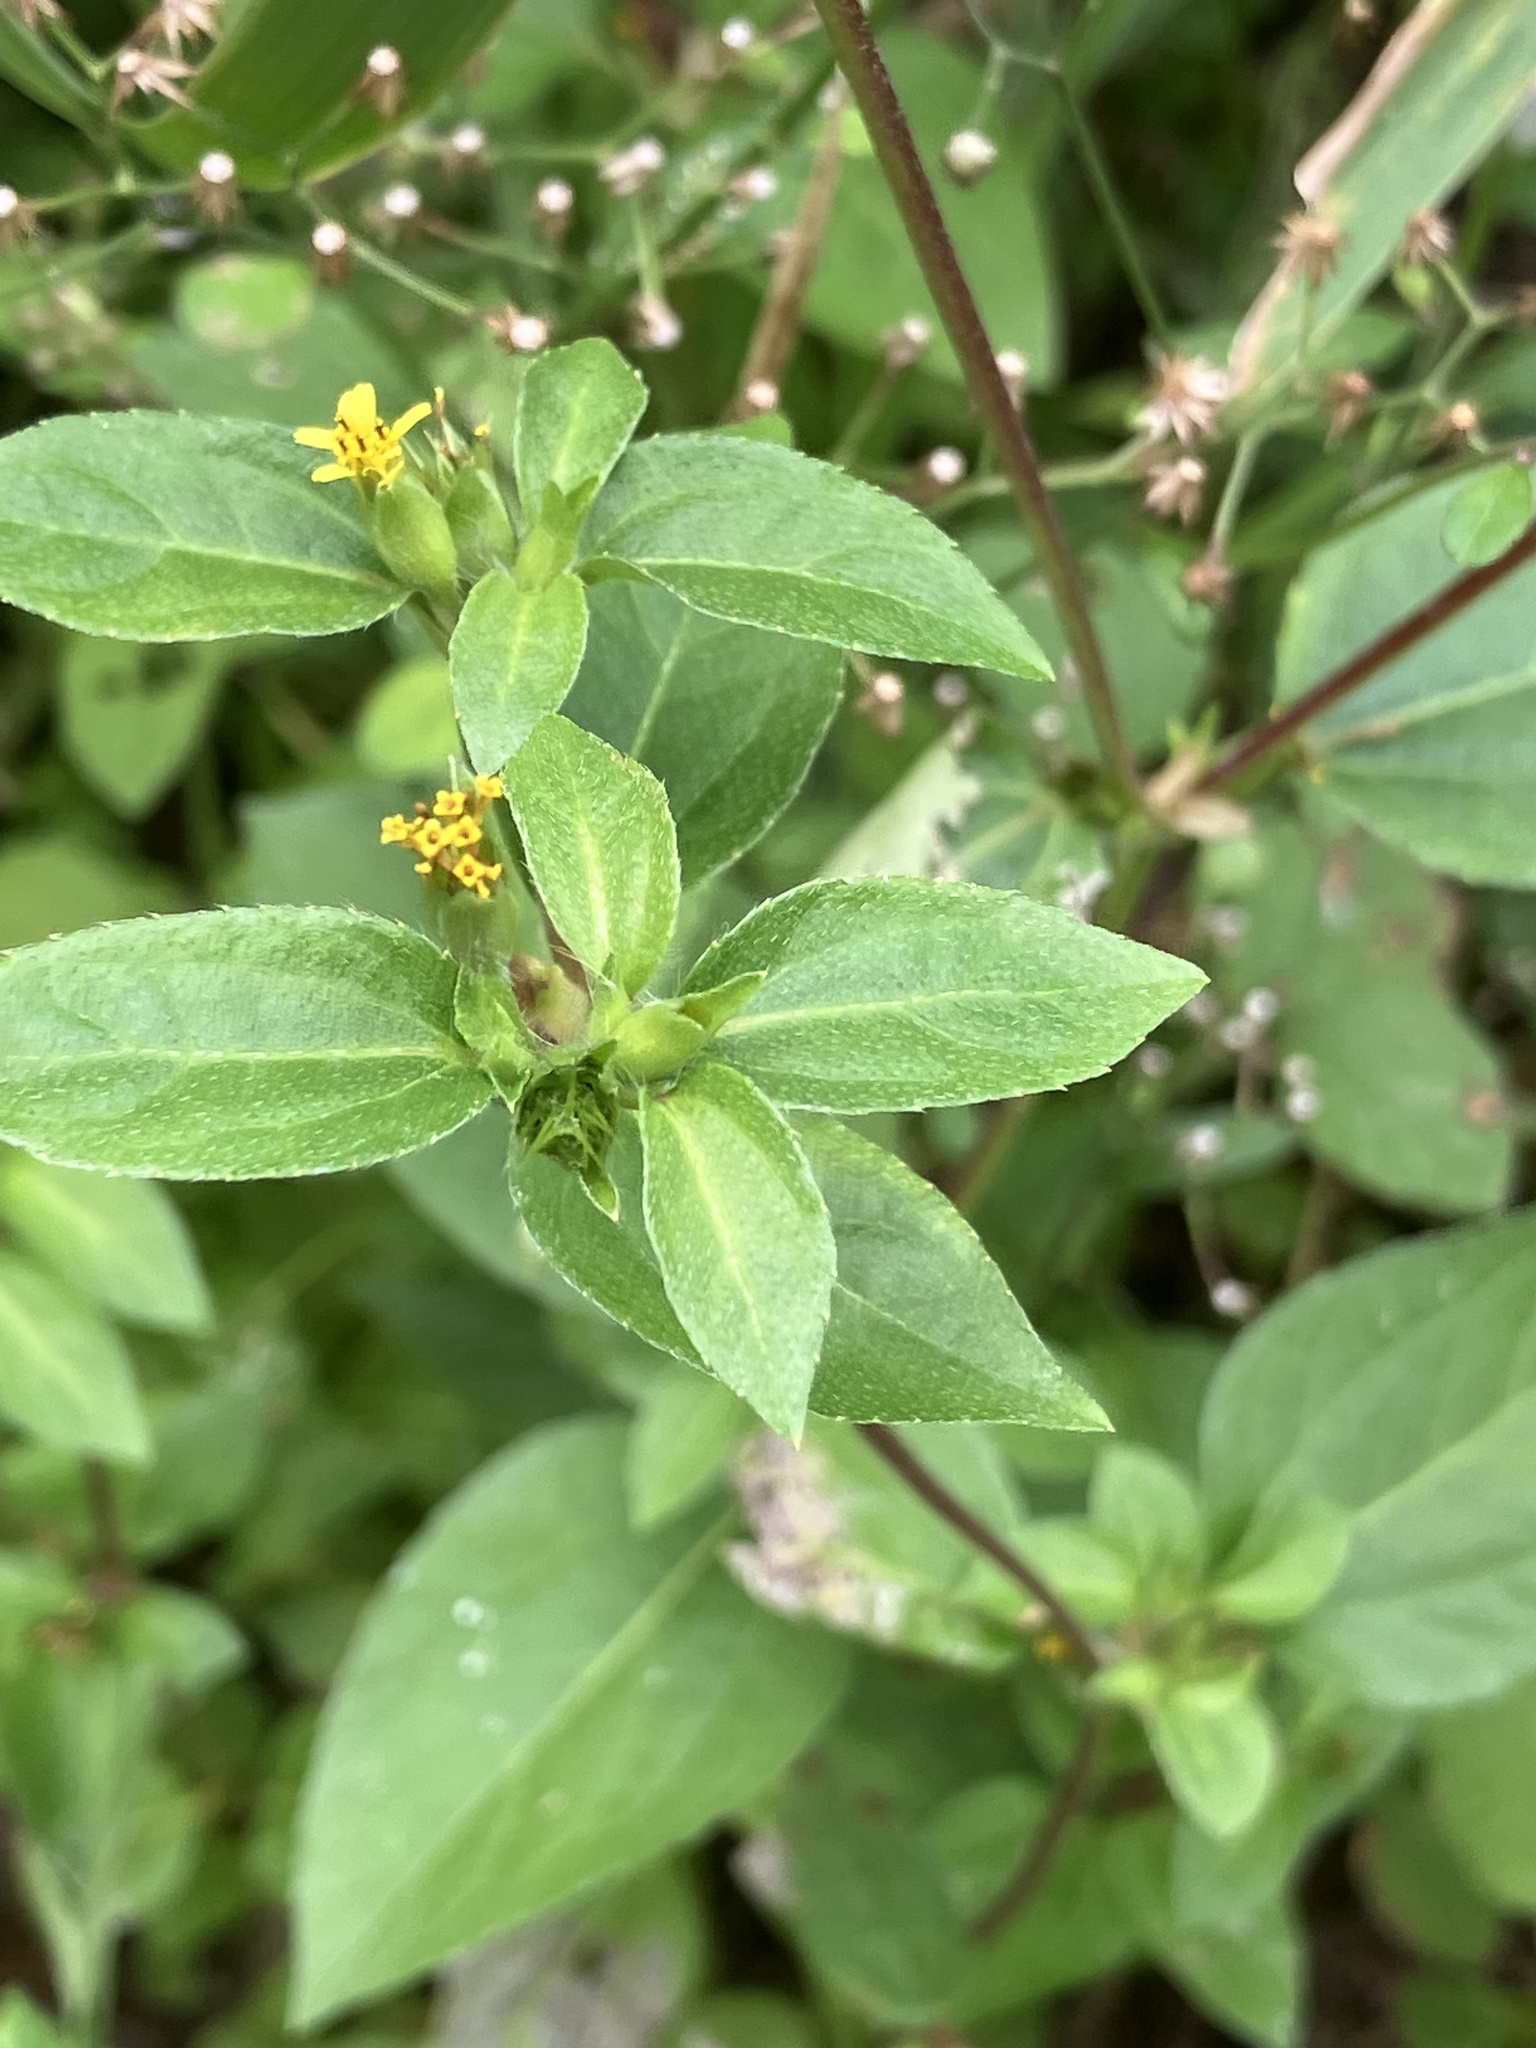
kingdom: Plantae
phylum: Tracheophyta
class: Magnoliopsida
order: Asterales
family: Asteraceae
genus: Synedrella
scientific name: Synedrella nodiflora
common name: Nodeweed
